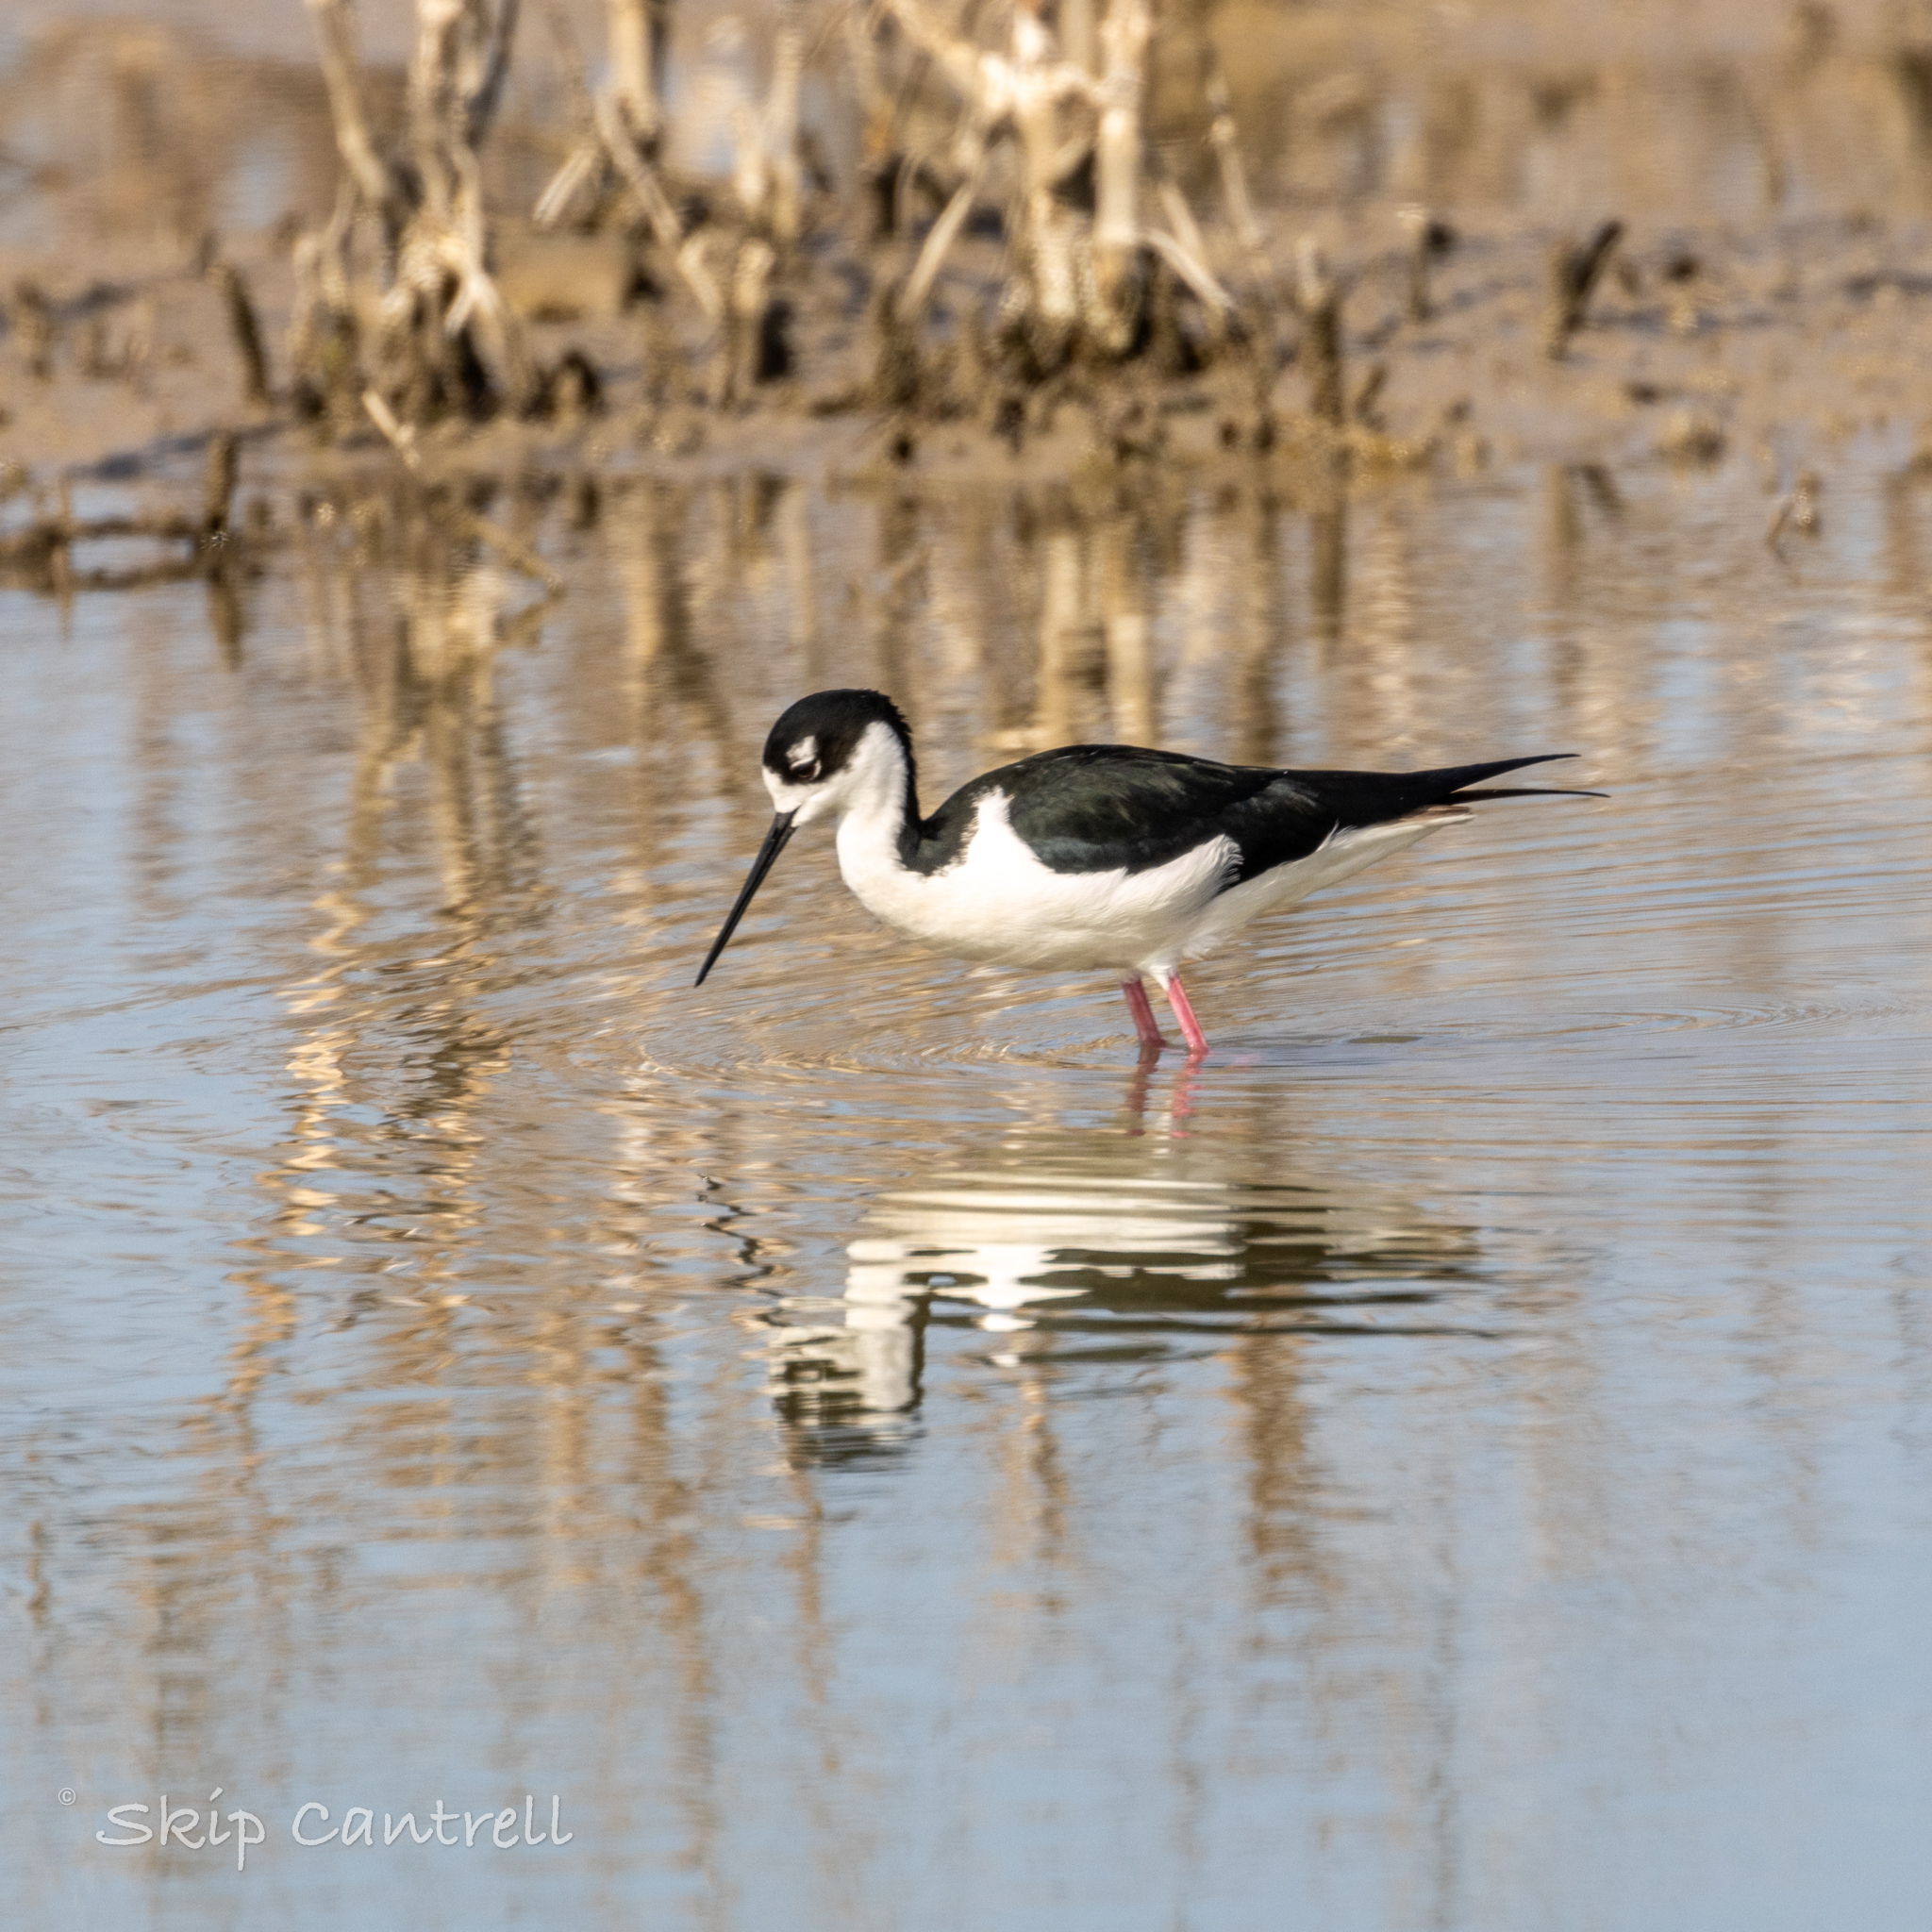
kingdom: Animalia
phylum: Chordata
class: Aves
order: Charadriiformes
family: Recurvirostridae
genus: Himantopus
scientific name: Himantopus mexicanus
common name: Black-necked stilt
